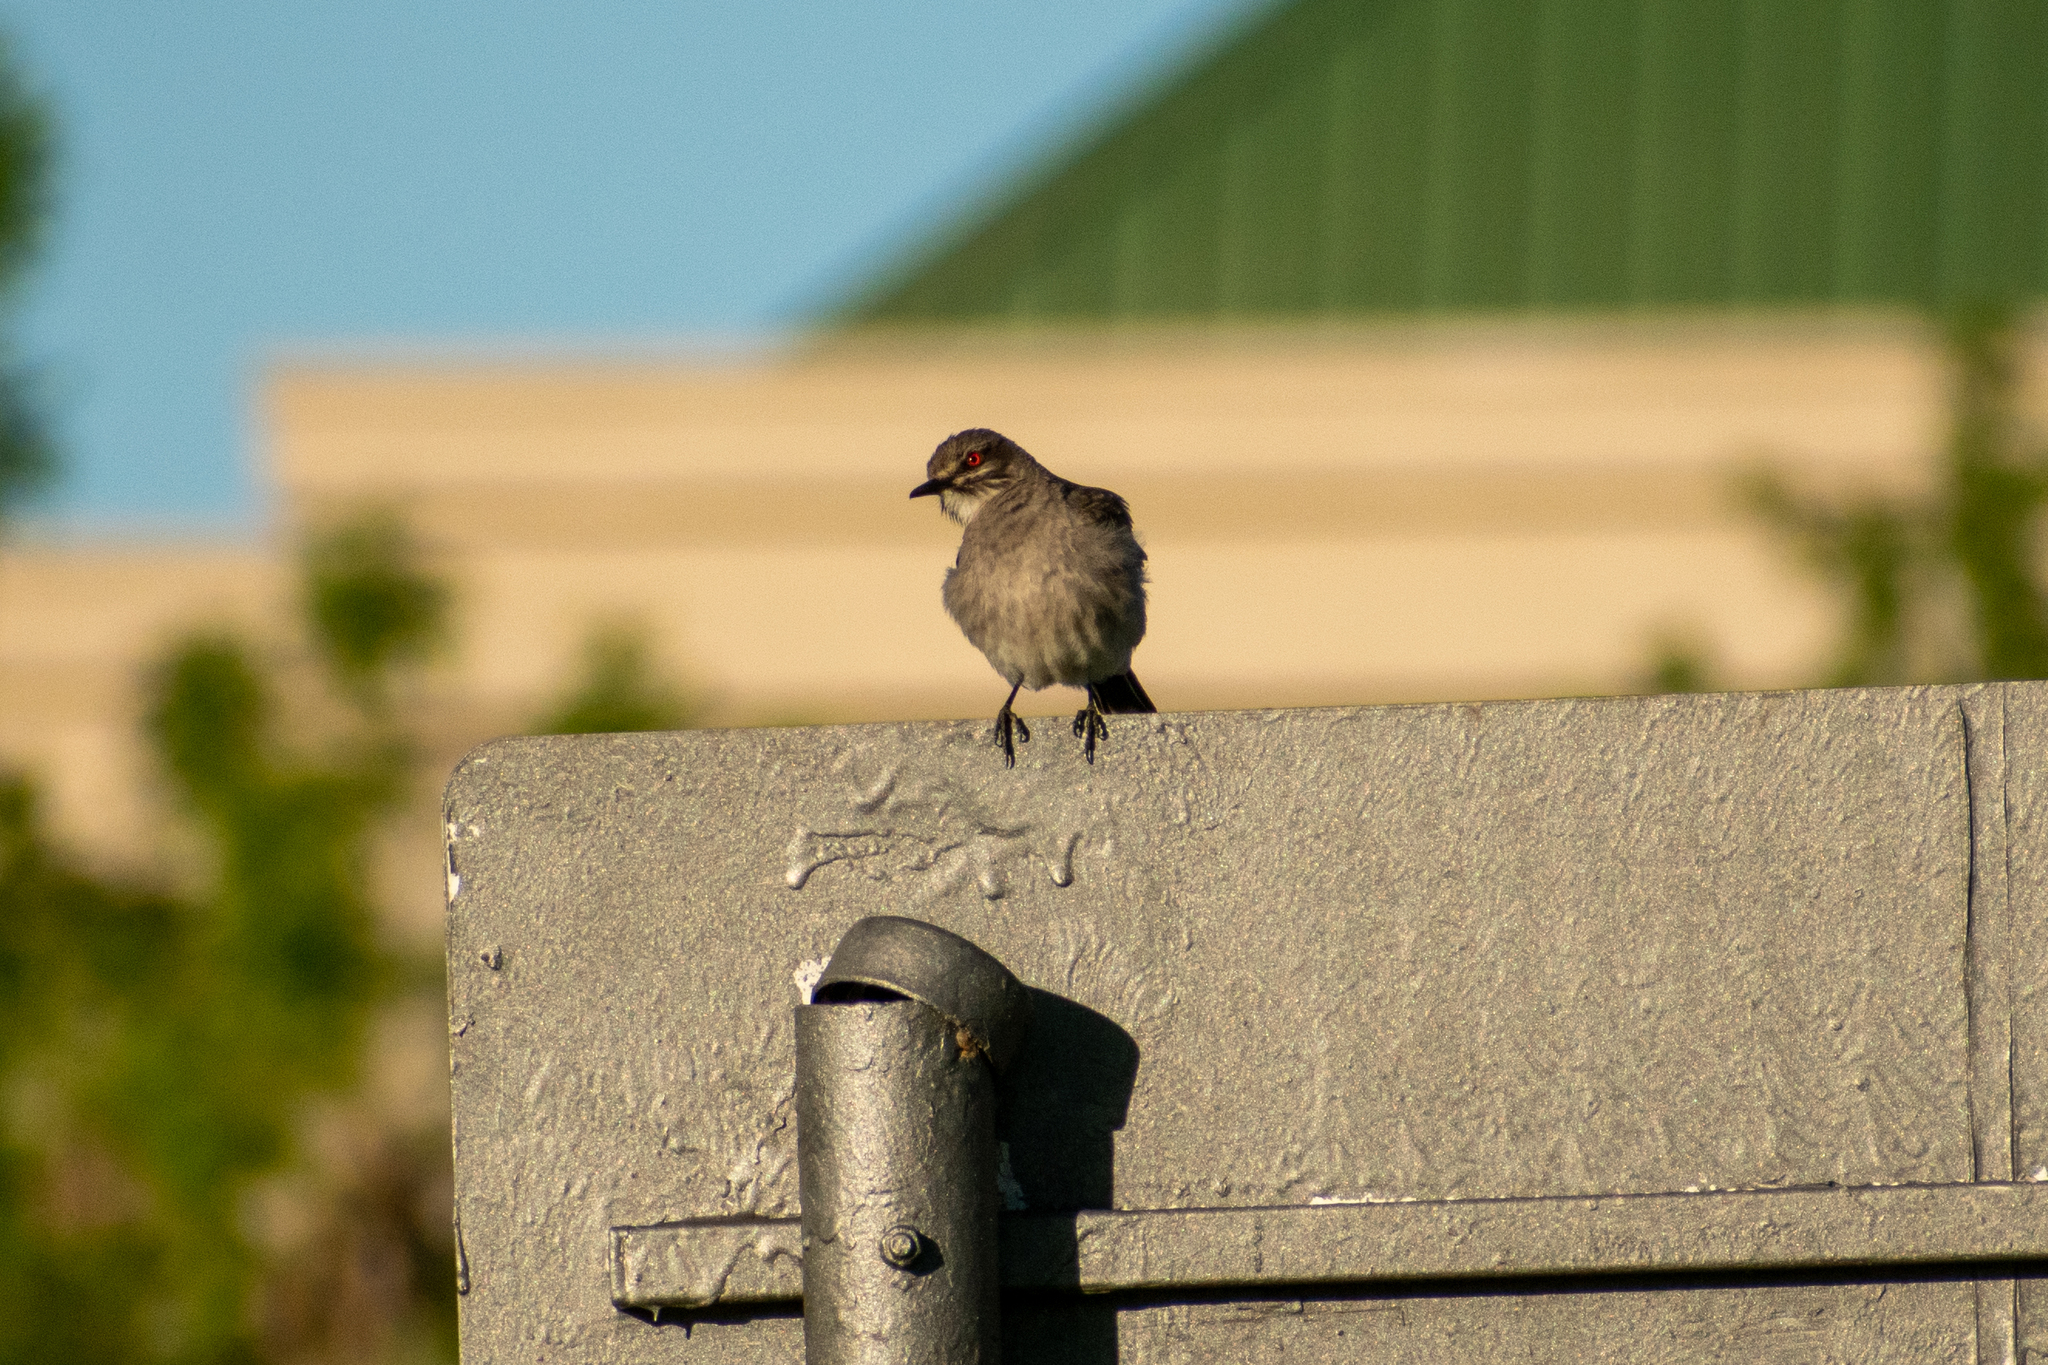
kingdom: Animalia
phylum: Chordata
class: Aves
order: Passeriformes
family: Tyrannidae
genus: Xolmis
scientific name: Xolmis cinereus
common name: Grey monjita
